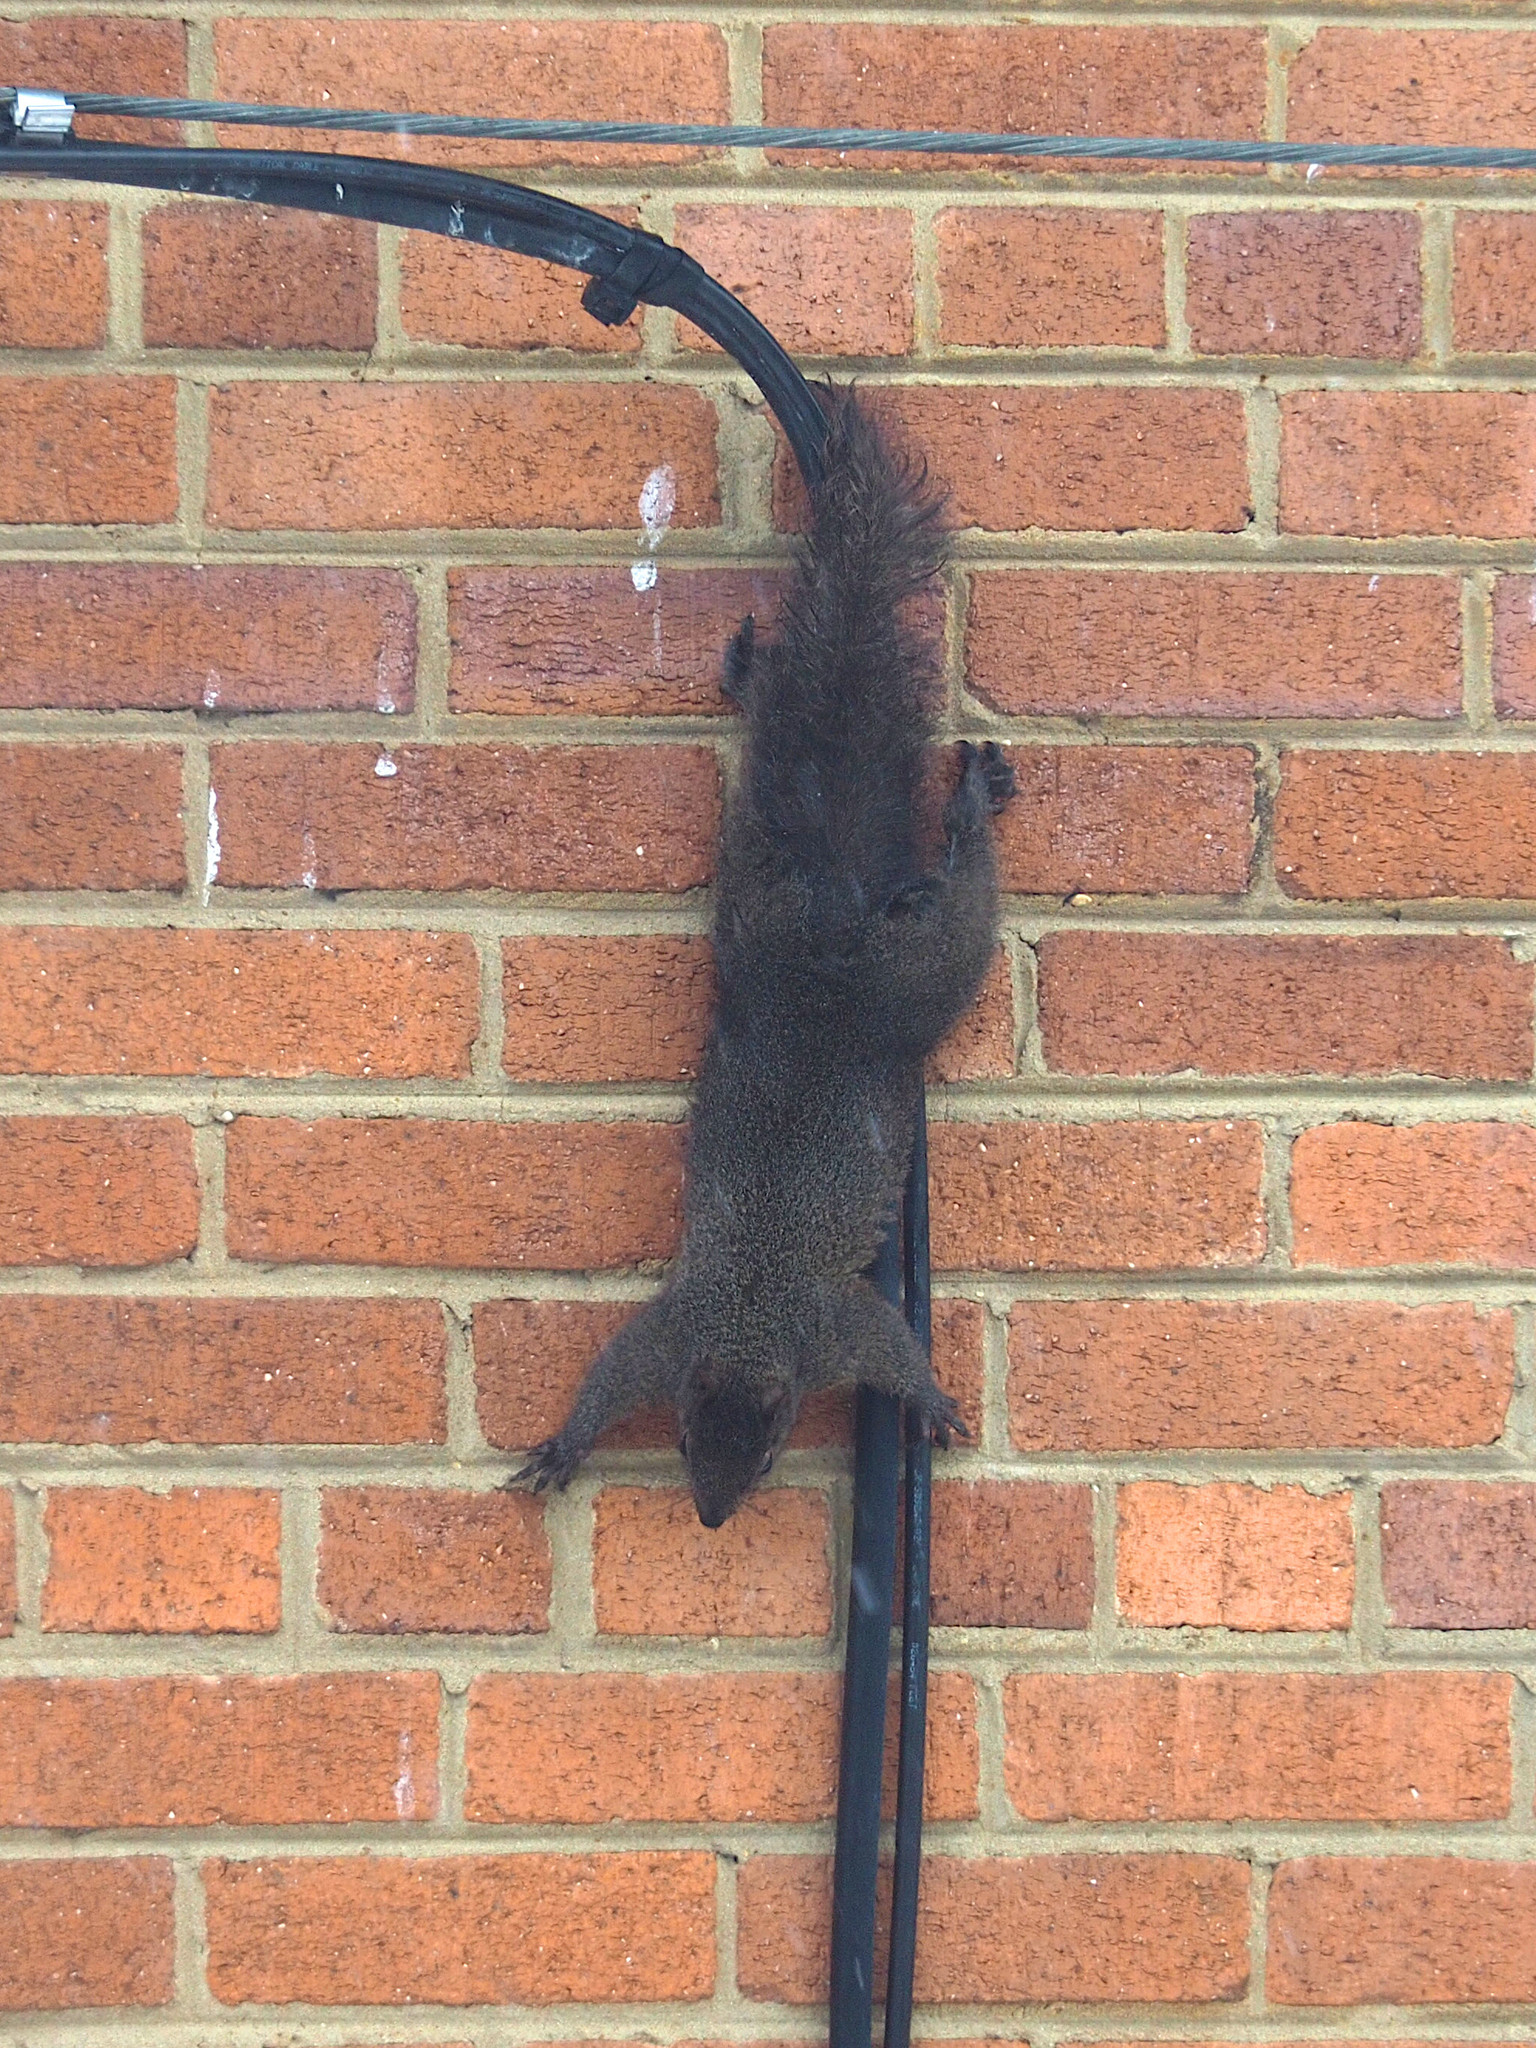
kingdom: Animalia
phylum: Chordata
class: Mammalia
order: Rodentia
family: Sciuridae
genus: Sciurus
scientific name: Sciurus carolinensis
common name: Eastern gray squirrel
